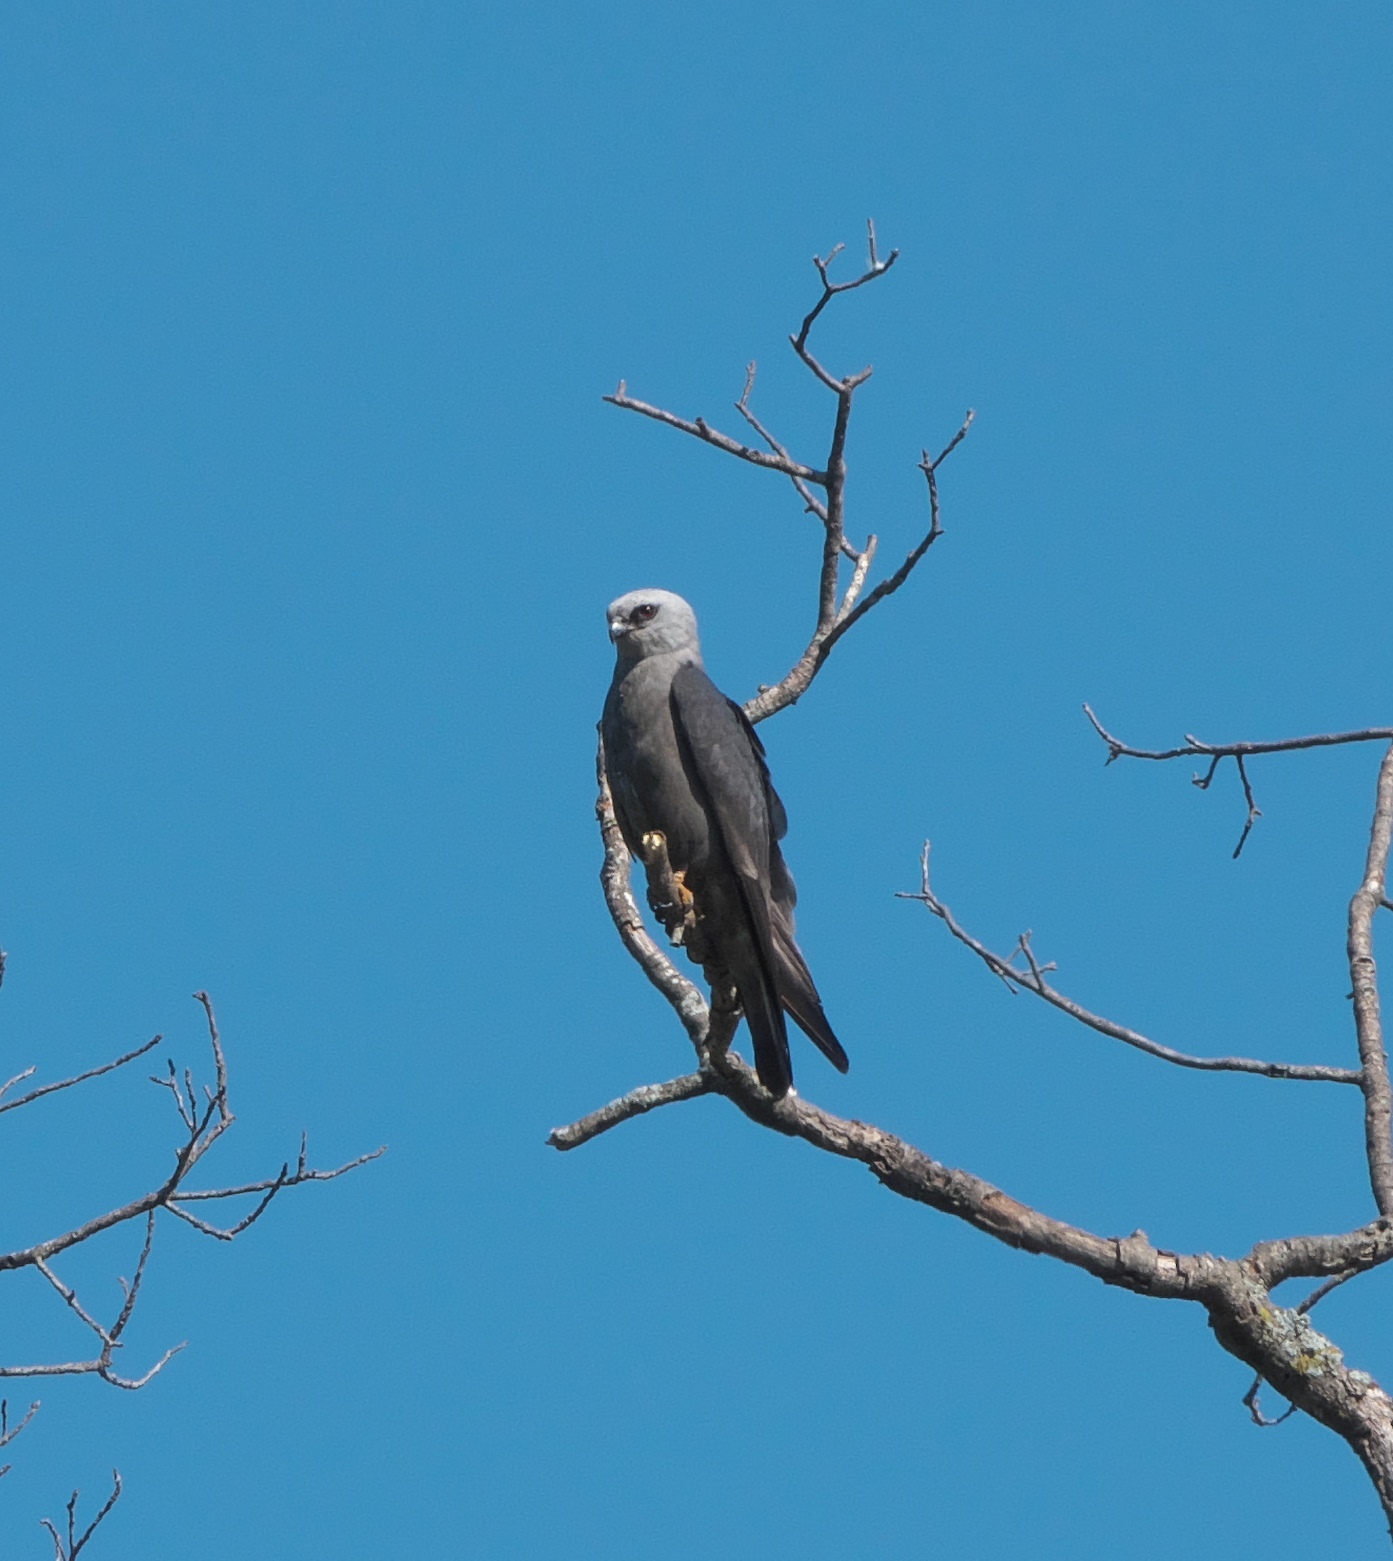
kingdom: Animalia
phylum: Chordata
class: Aves
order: Accipitriformes
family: Accipitridae
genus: Ictinia
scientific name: Ictinia mississippiensis
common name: Mississippi kite
